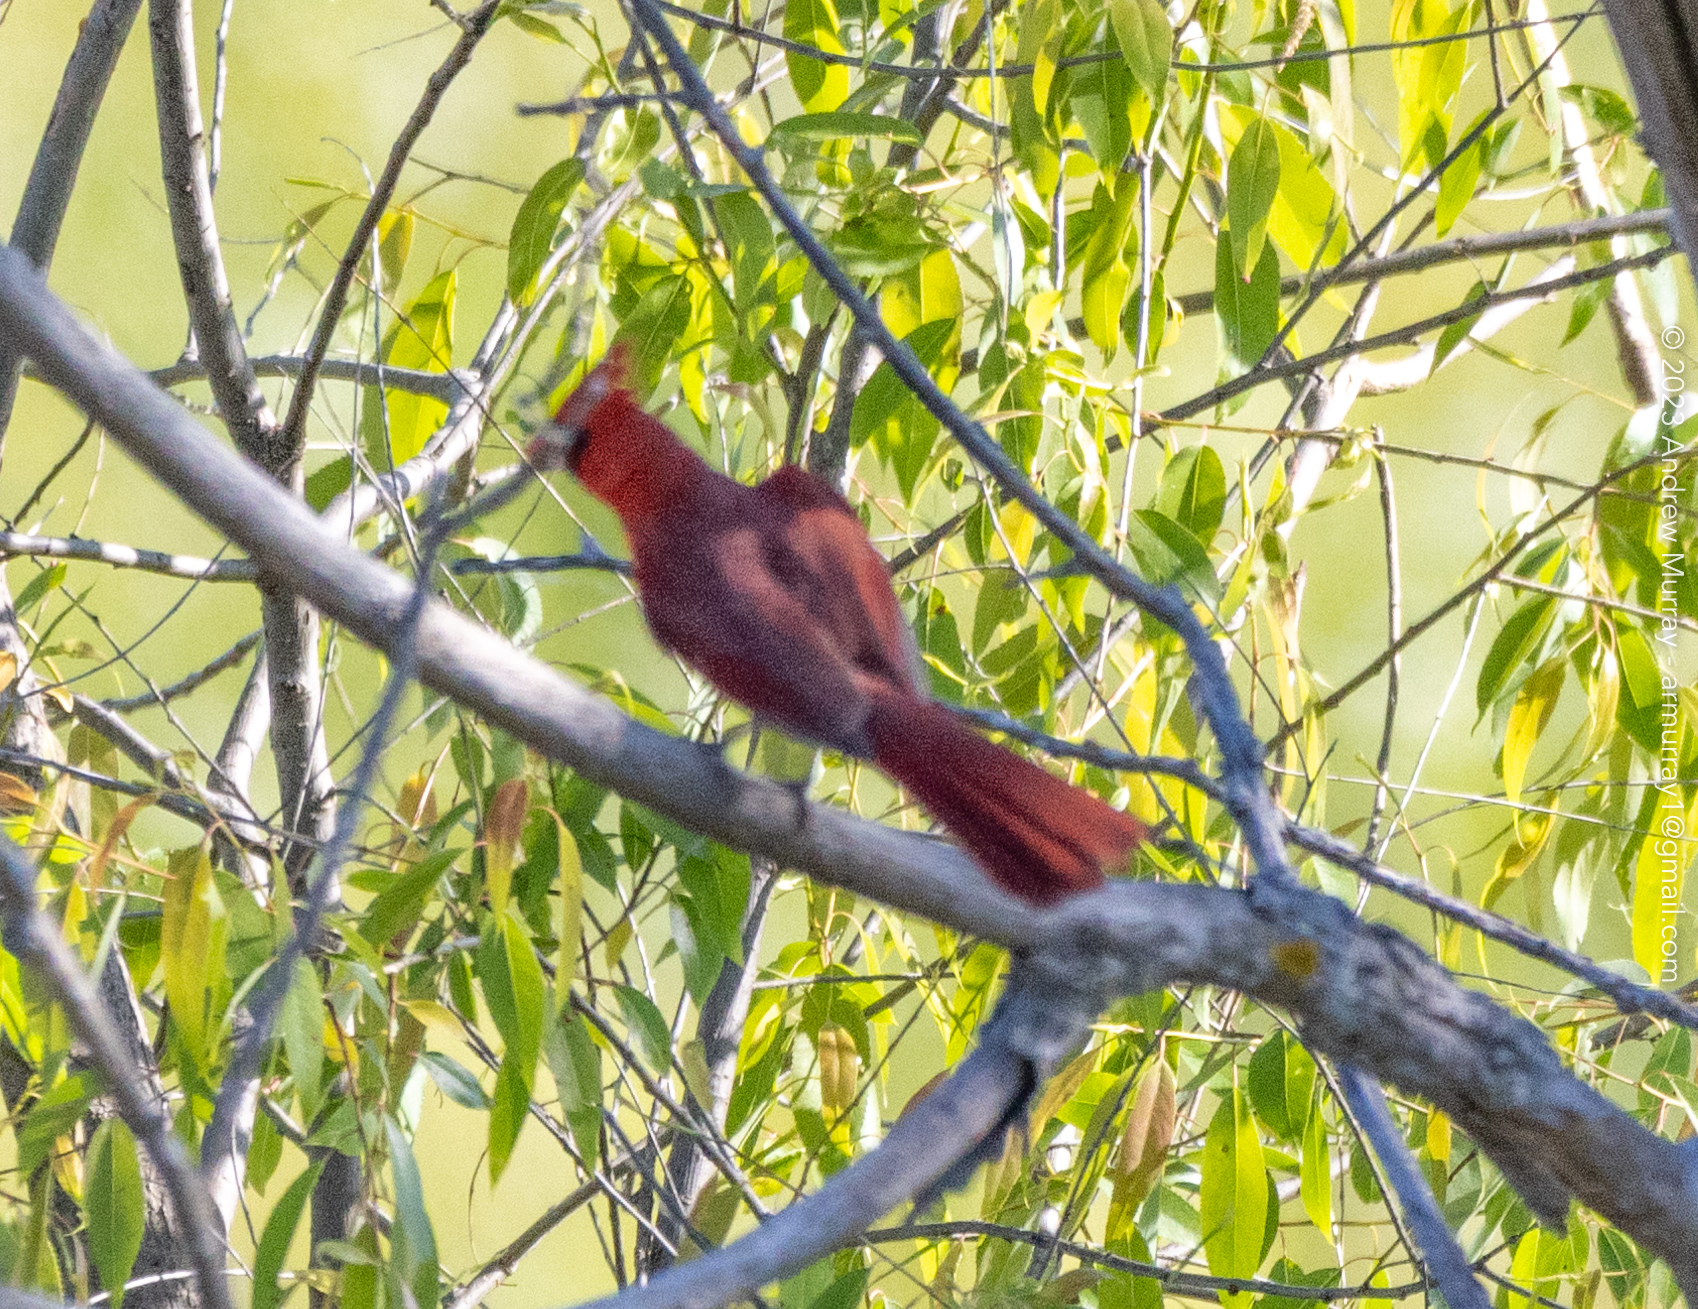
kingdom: Animalia
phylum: Chordata
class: Aves
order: Passeriformes
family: Cardinalidae
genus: Cardinalis
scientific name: Cardinalis cardinalis
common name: Northern cardinal
